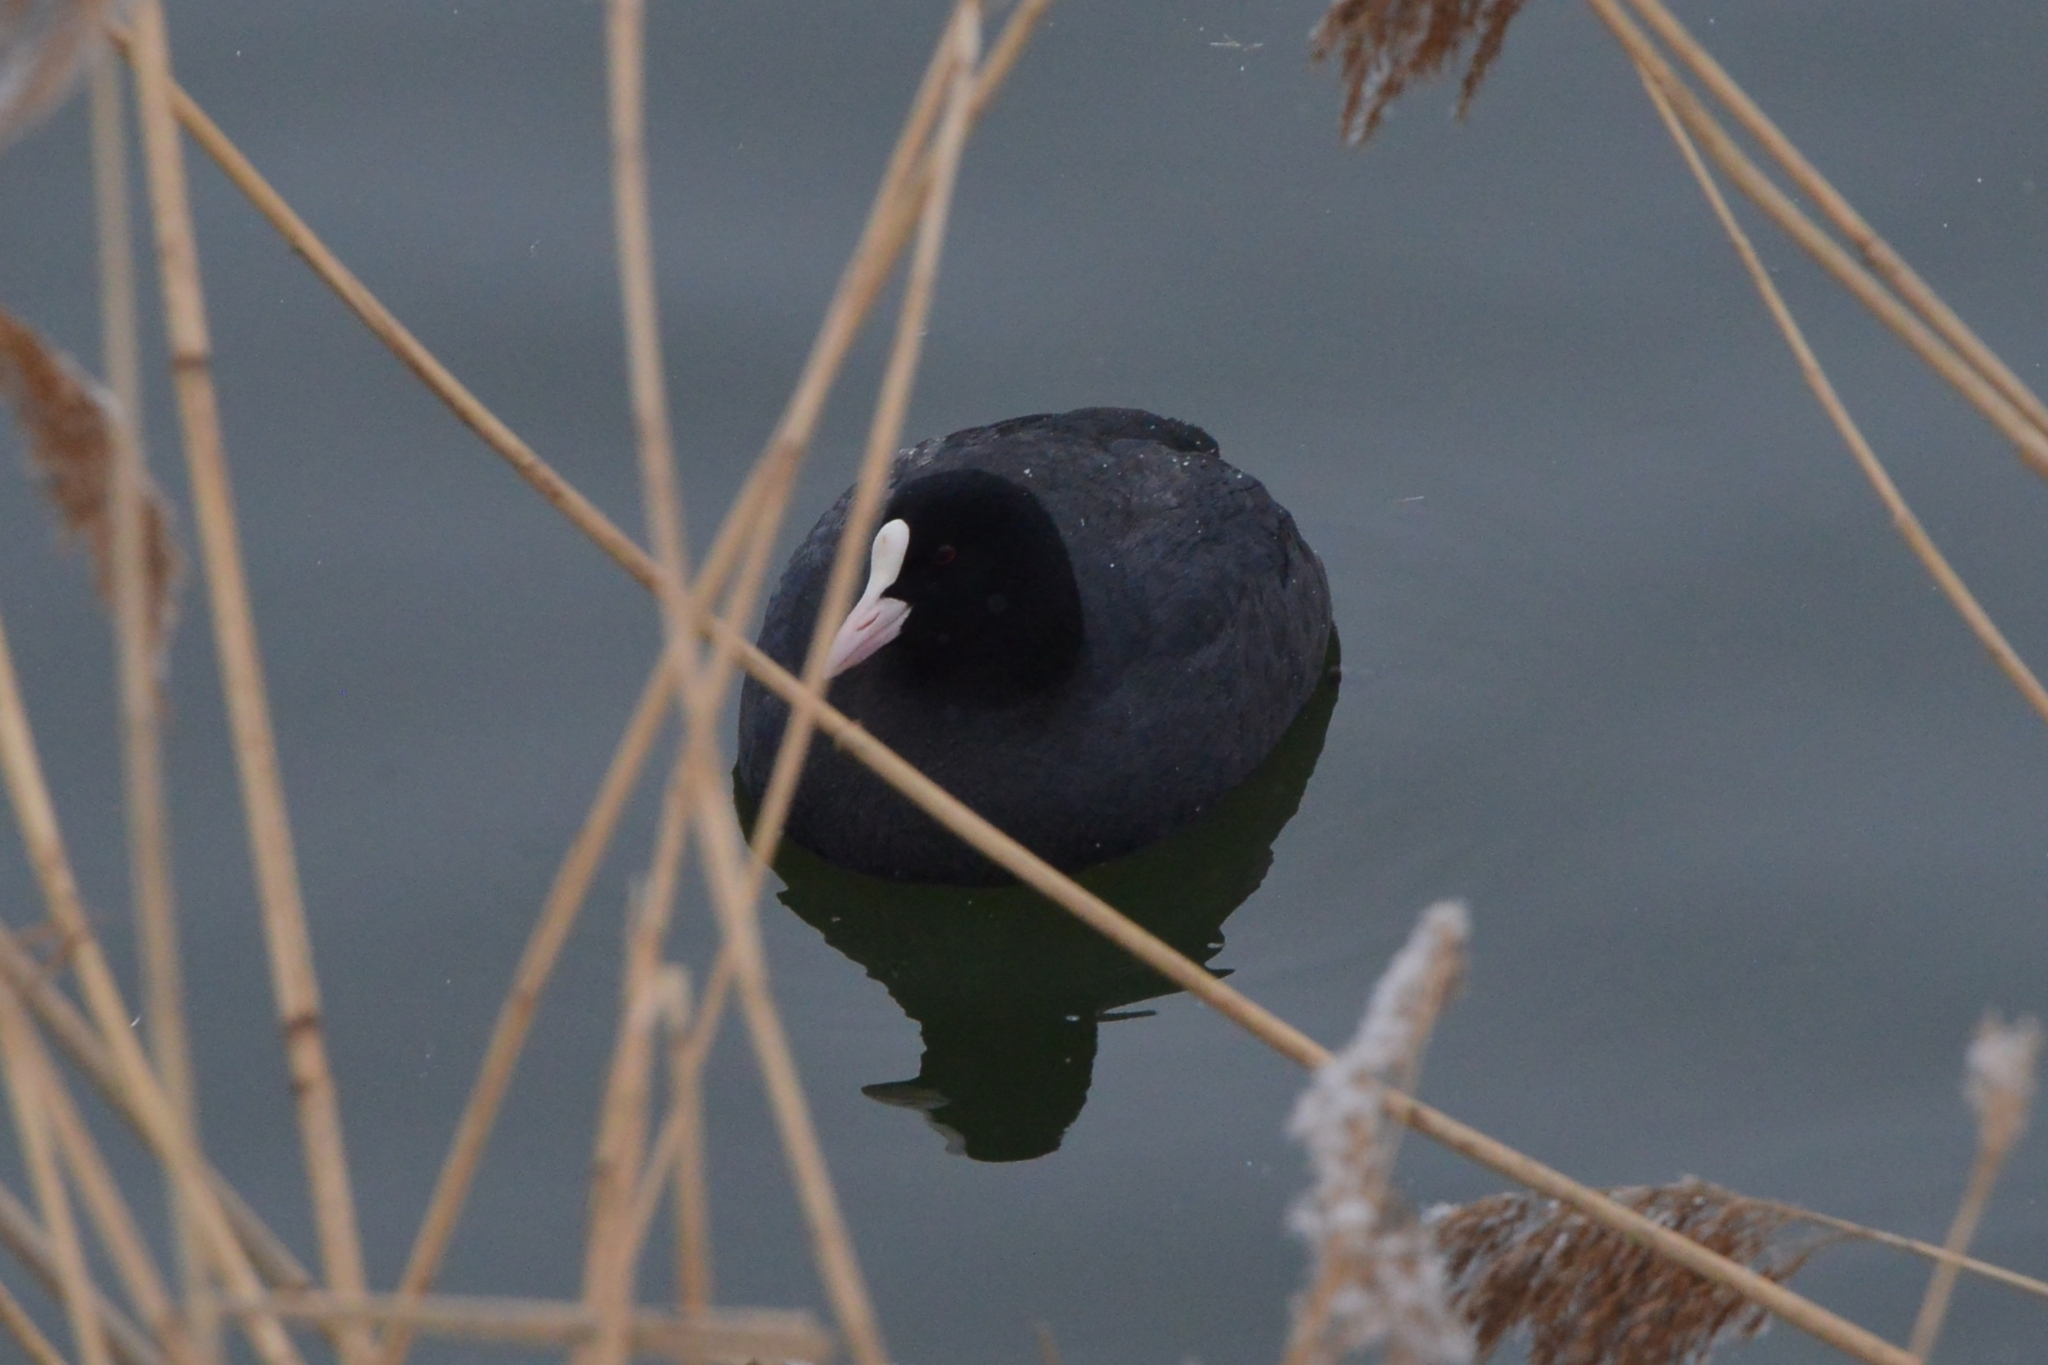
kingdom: Animalia
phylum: Chordata
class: Aves
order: Gruiformes
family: Rallidae
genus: Fulica
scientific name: Fulica atra
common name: Eurasian coot
